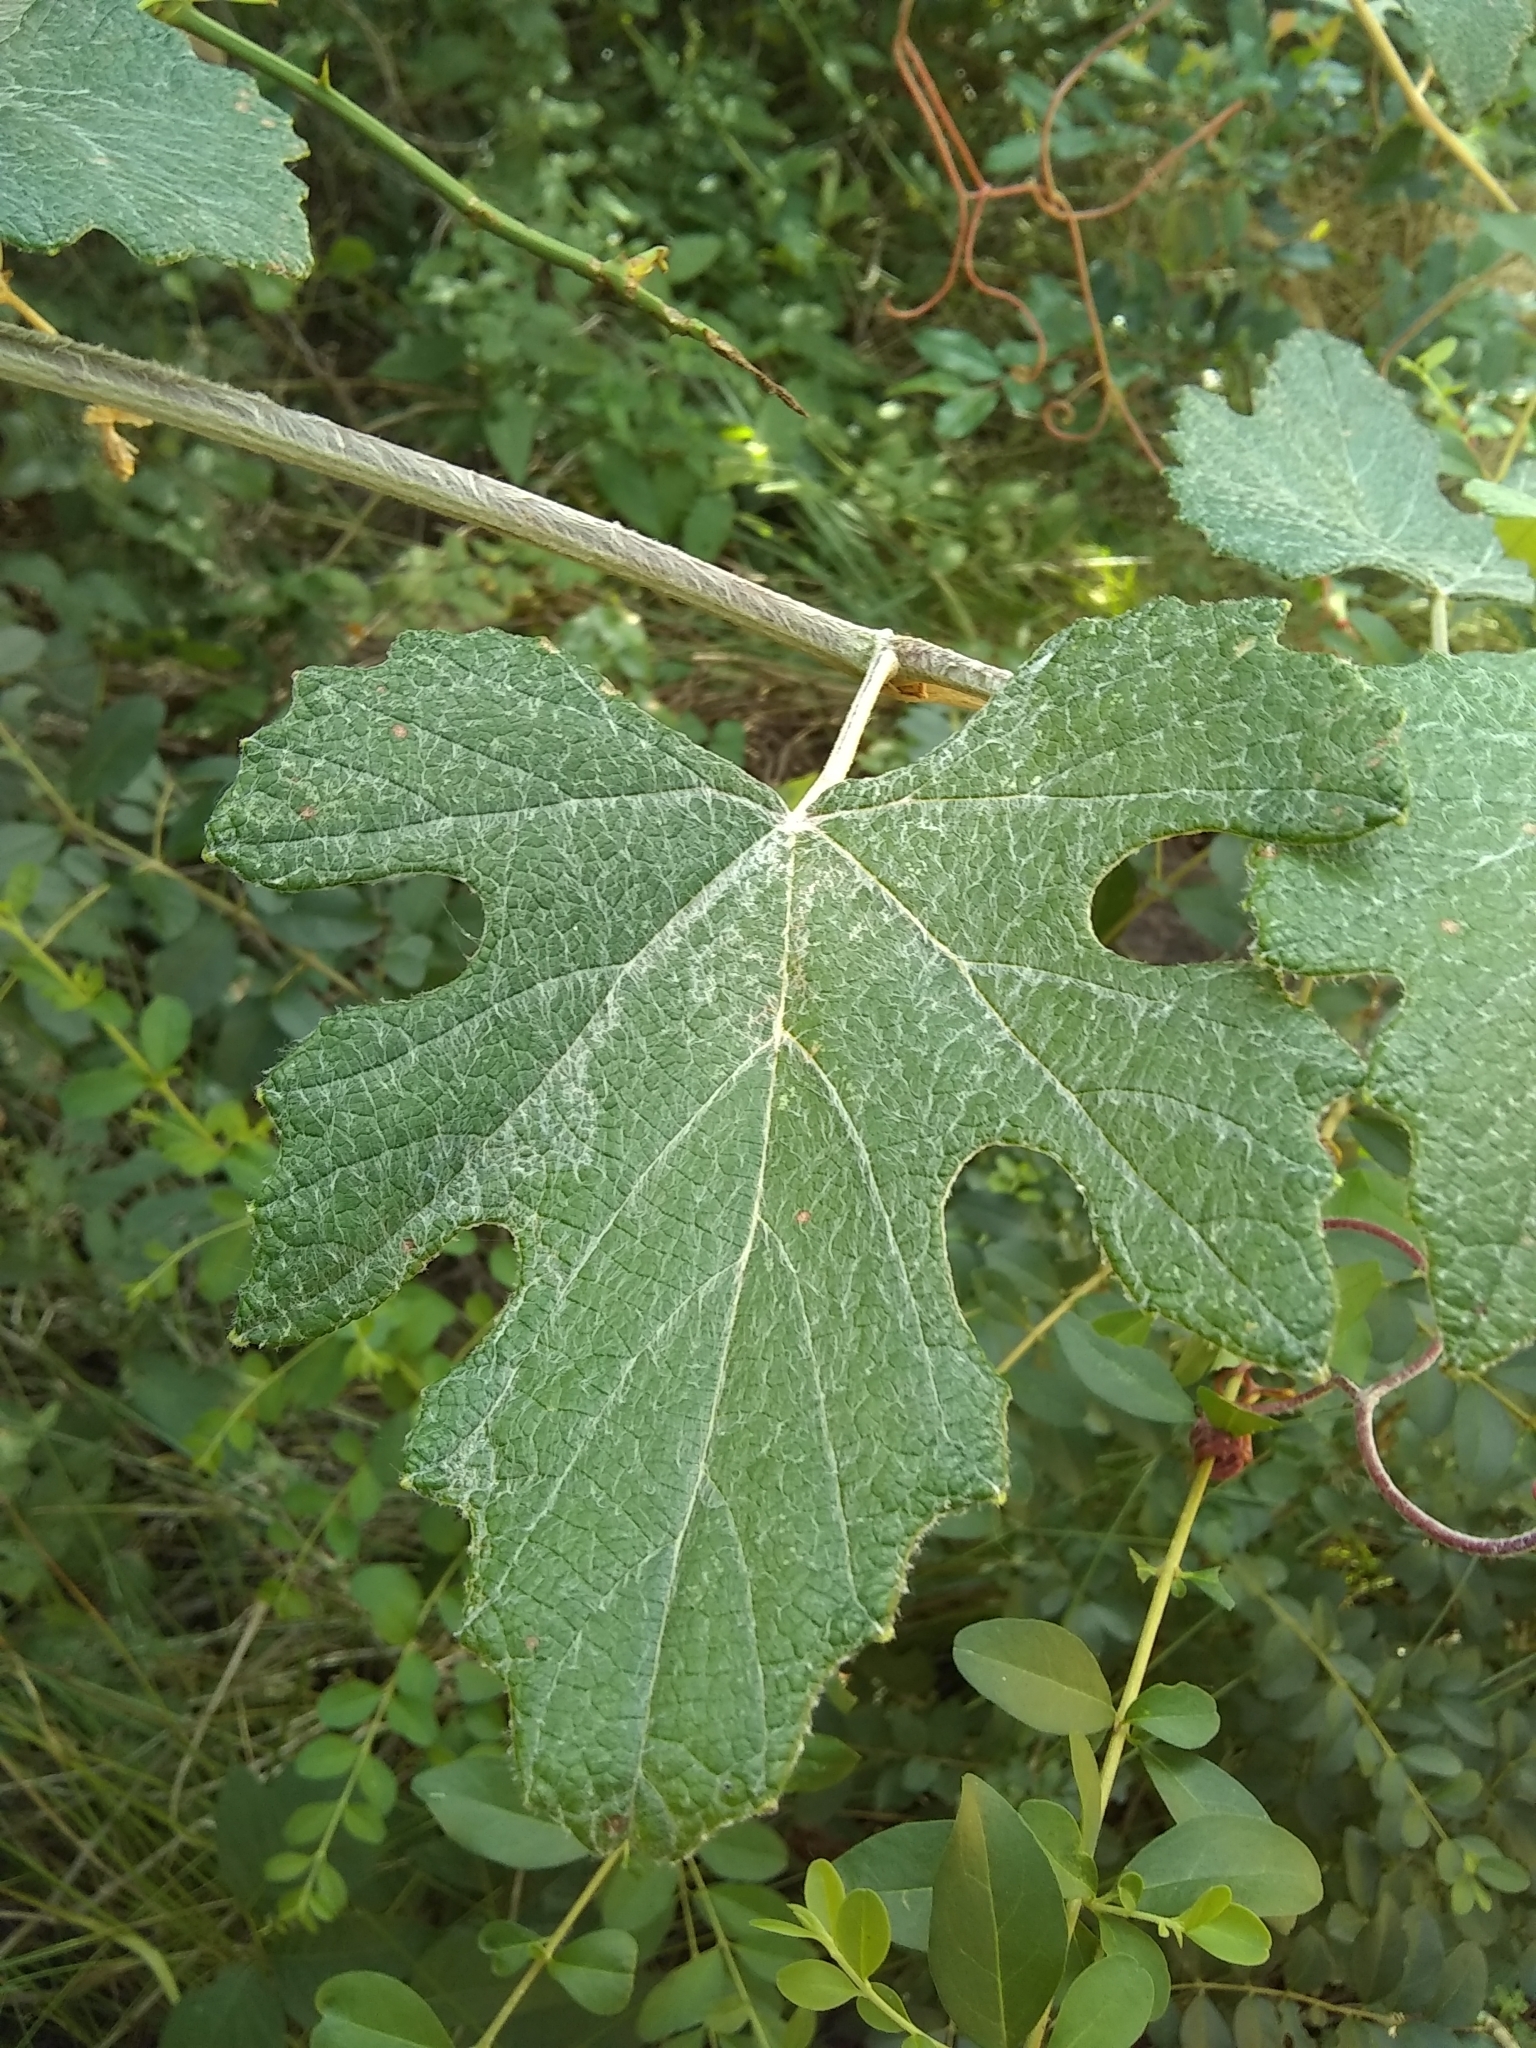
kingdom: Plantae
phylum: Tracheophyta
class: Magnoliopsida
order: Vitales
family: Vitaceae
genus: Vitis
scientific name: Vitis mustangensis
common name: Mustang grape
